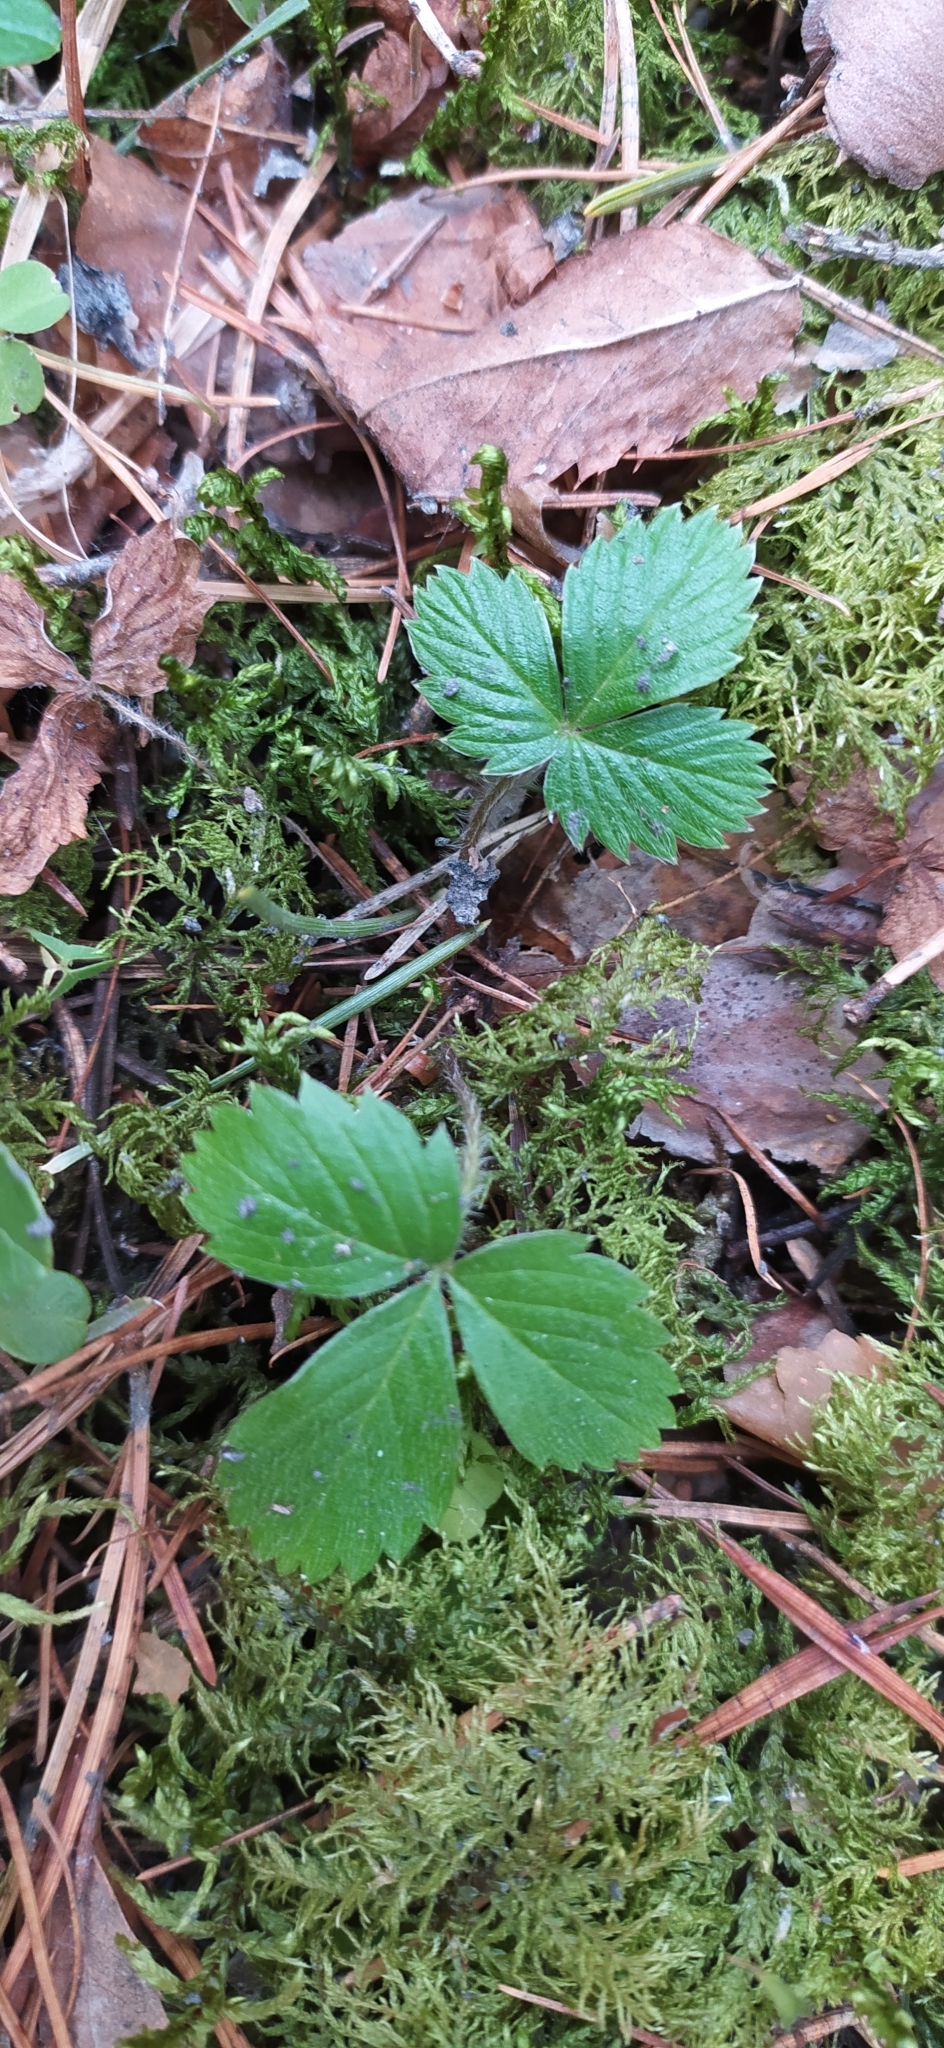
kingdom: Plantae
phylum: Tracheophyta
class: Magnoliopsida
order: Rosales
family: Rosaceae
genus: Fragaria
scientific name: Fragaria vesca
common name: Wild strawberry
